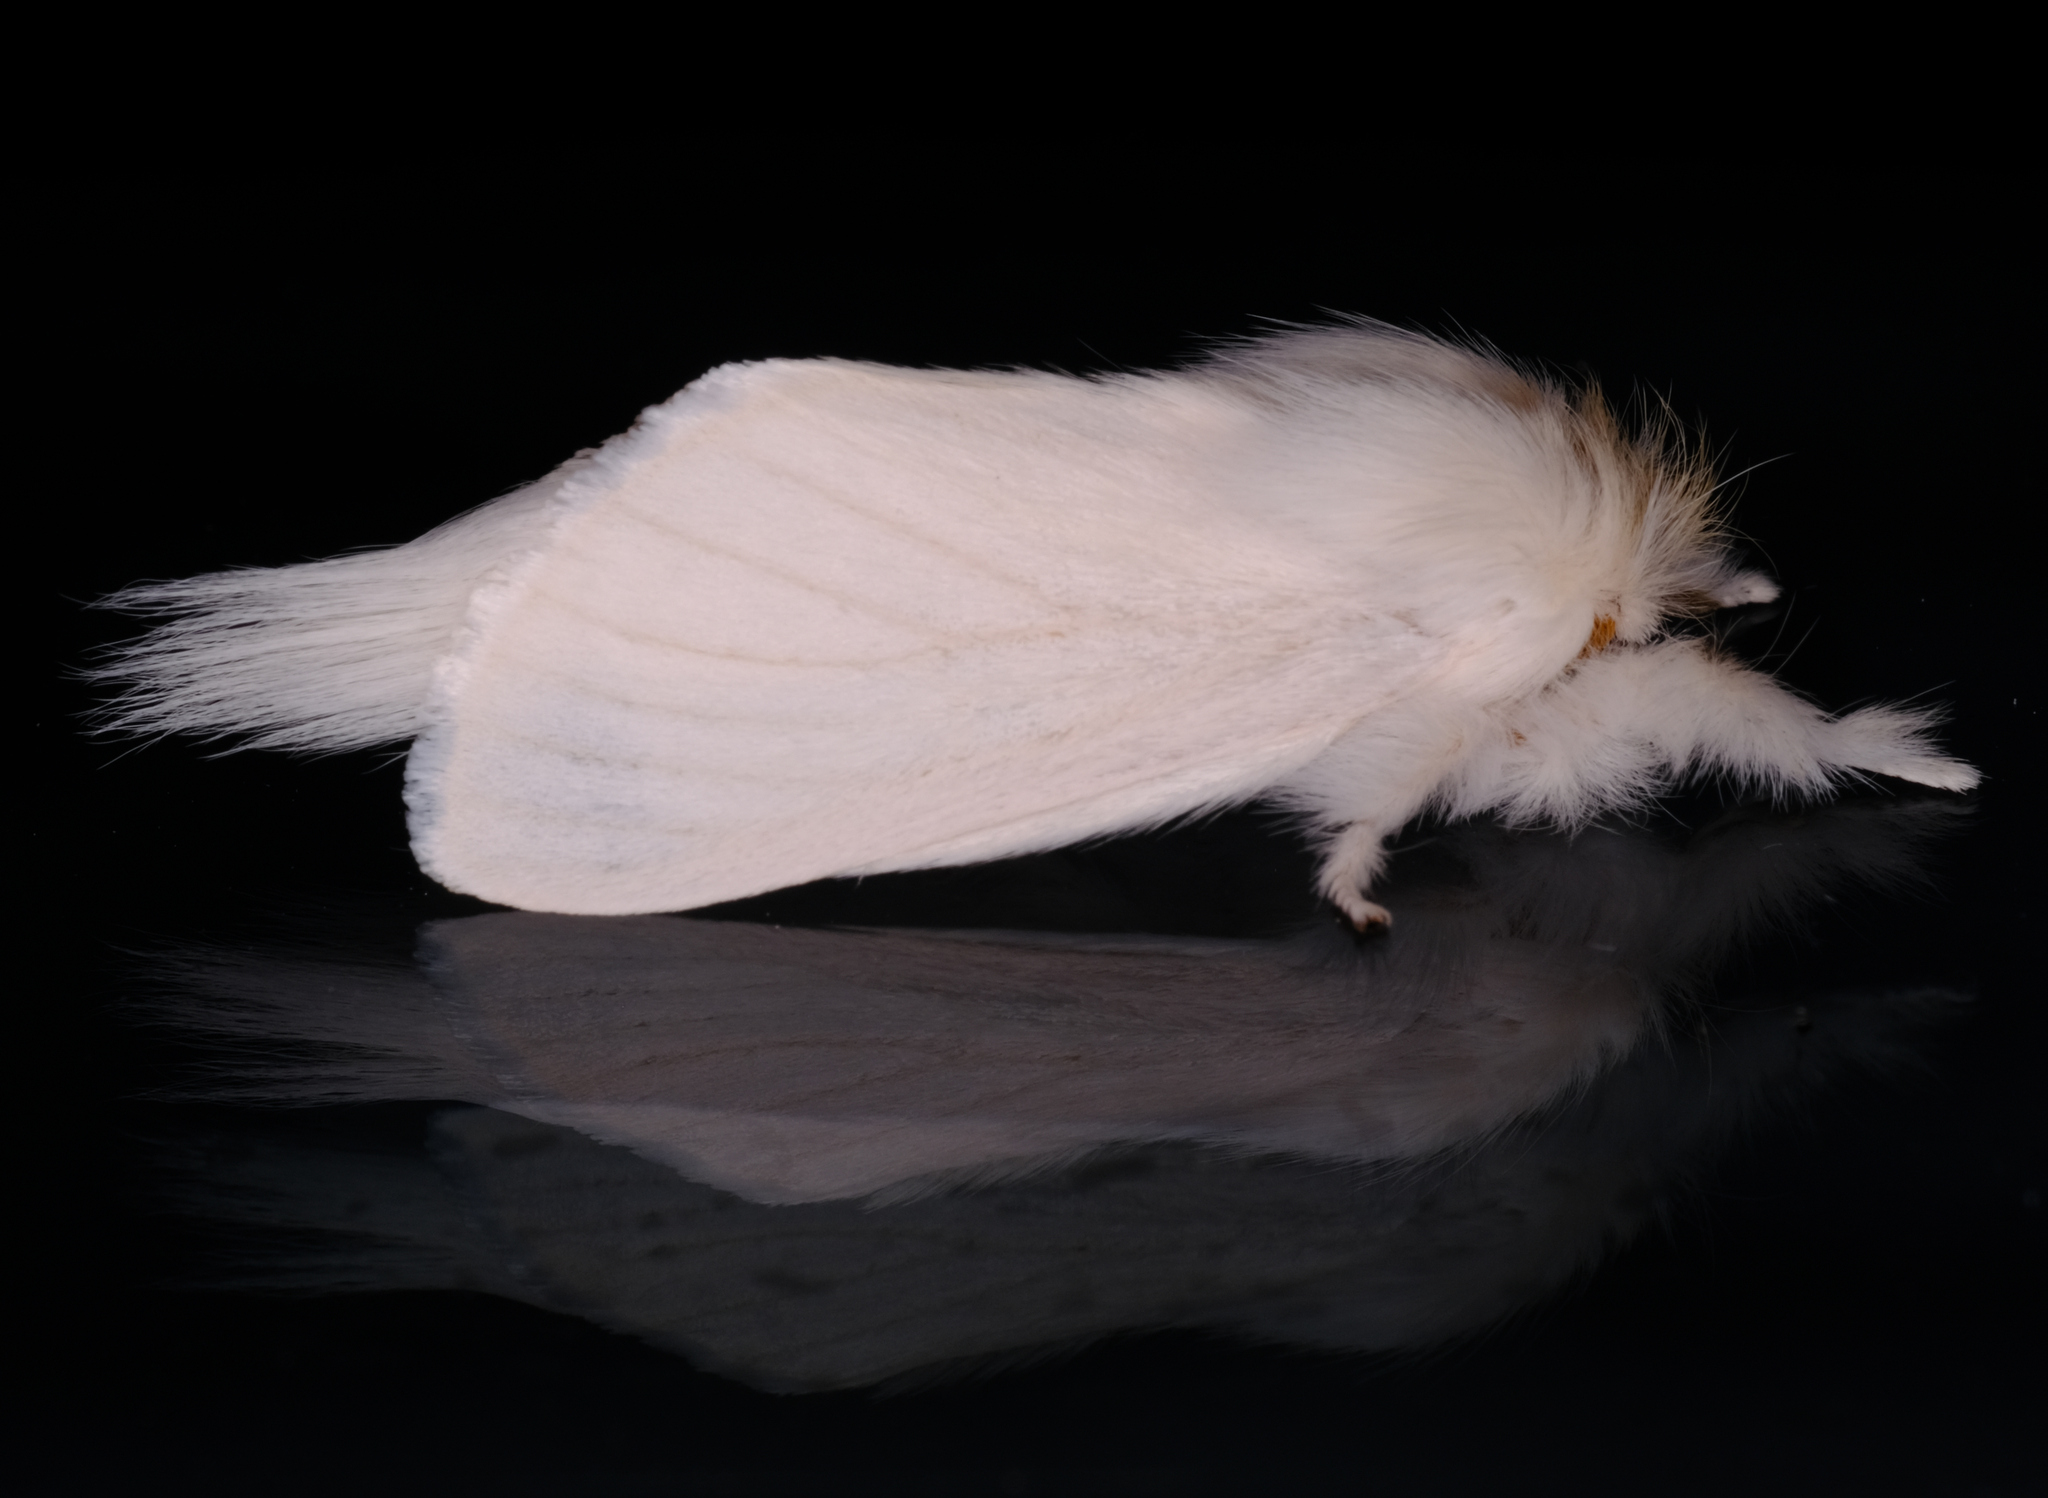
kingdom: Animalia
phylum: Arthropoda
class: Insecta
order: Lepidoptera
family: Notodontidae
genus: Trichiocercus
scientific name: Trichiocercus sparshalli
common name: Long-tailed satin
